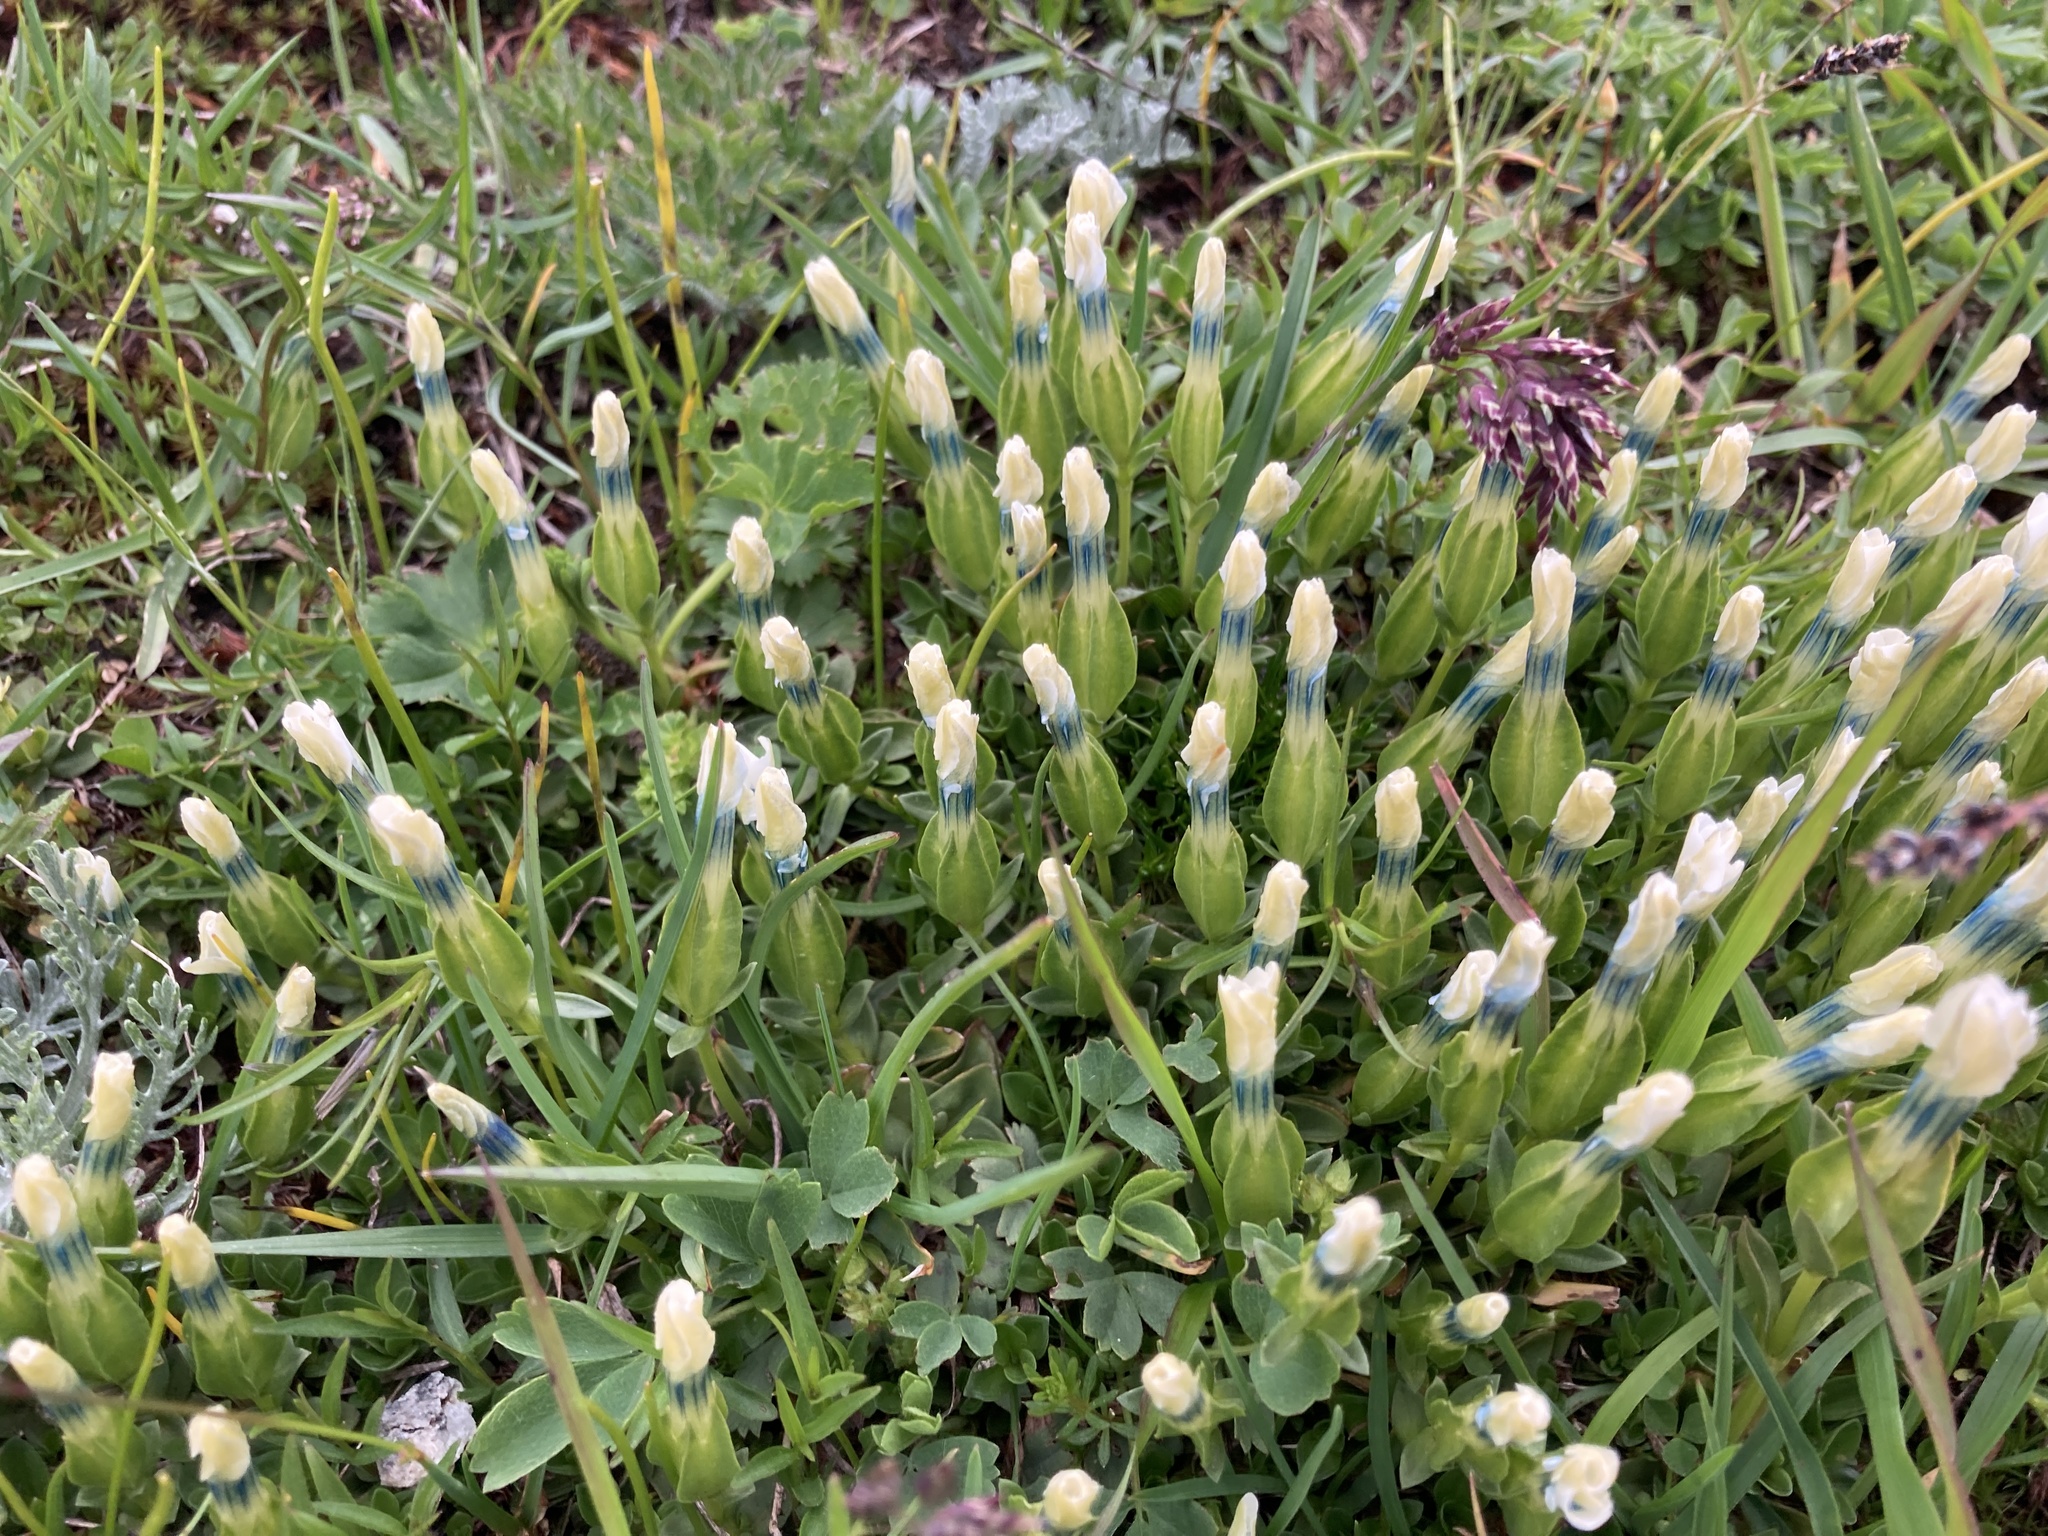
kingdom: Plantae
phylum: Tracheophyta
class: Magnoliopsida
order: Gentianales
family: Gentianaceae
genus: Gentiana
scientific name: Gentiana verna
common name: Spring gentian
